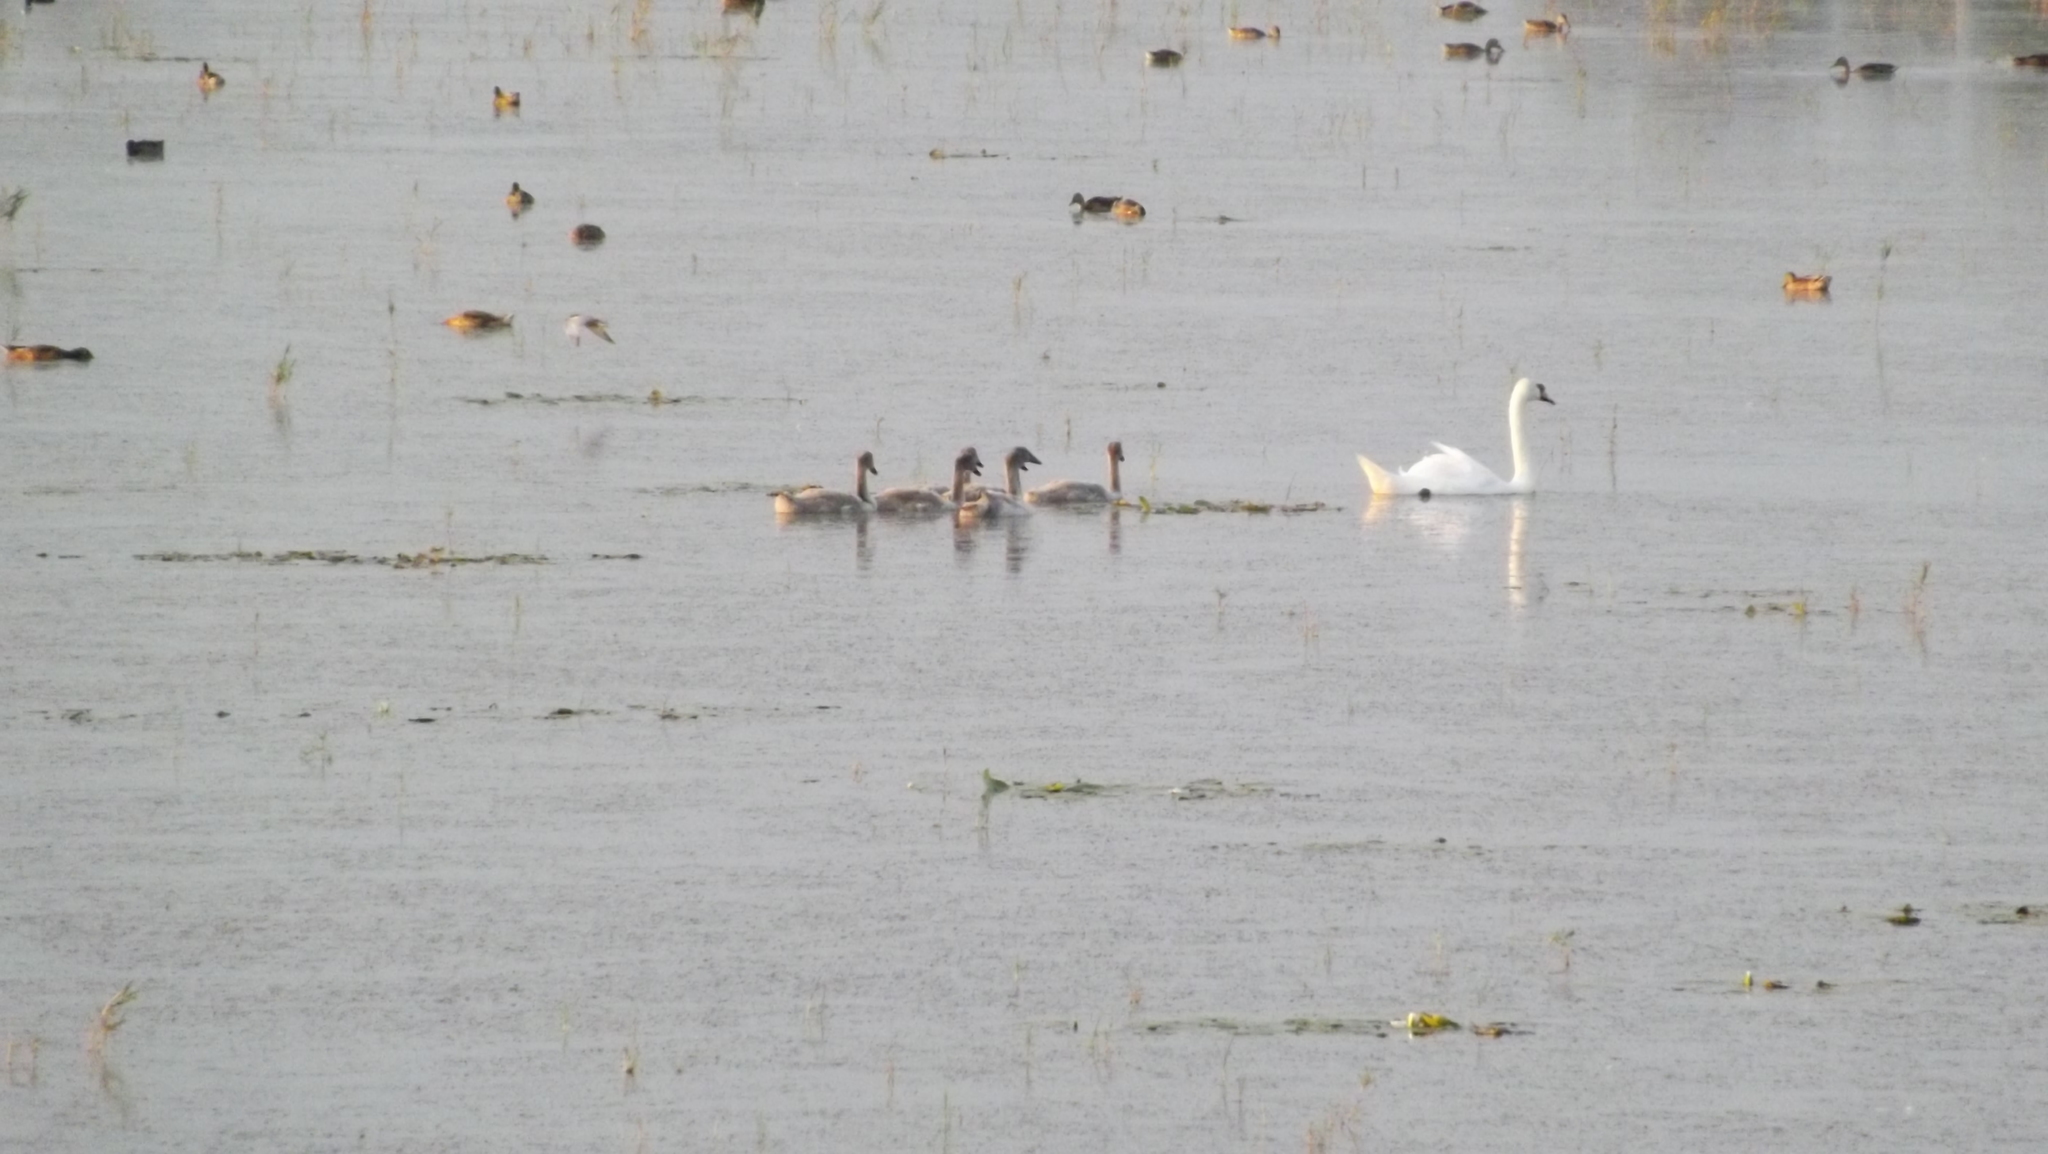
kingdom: Animalia
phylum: Chordata
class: Aves
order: Anseriformes
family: Anatidae
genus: Cygnus
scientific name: Cygnus olor
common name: Mute swan
